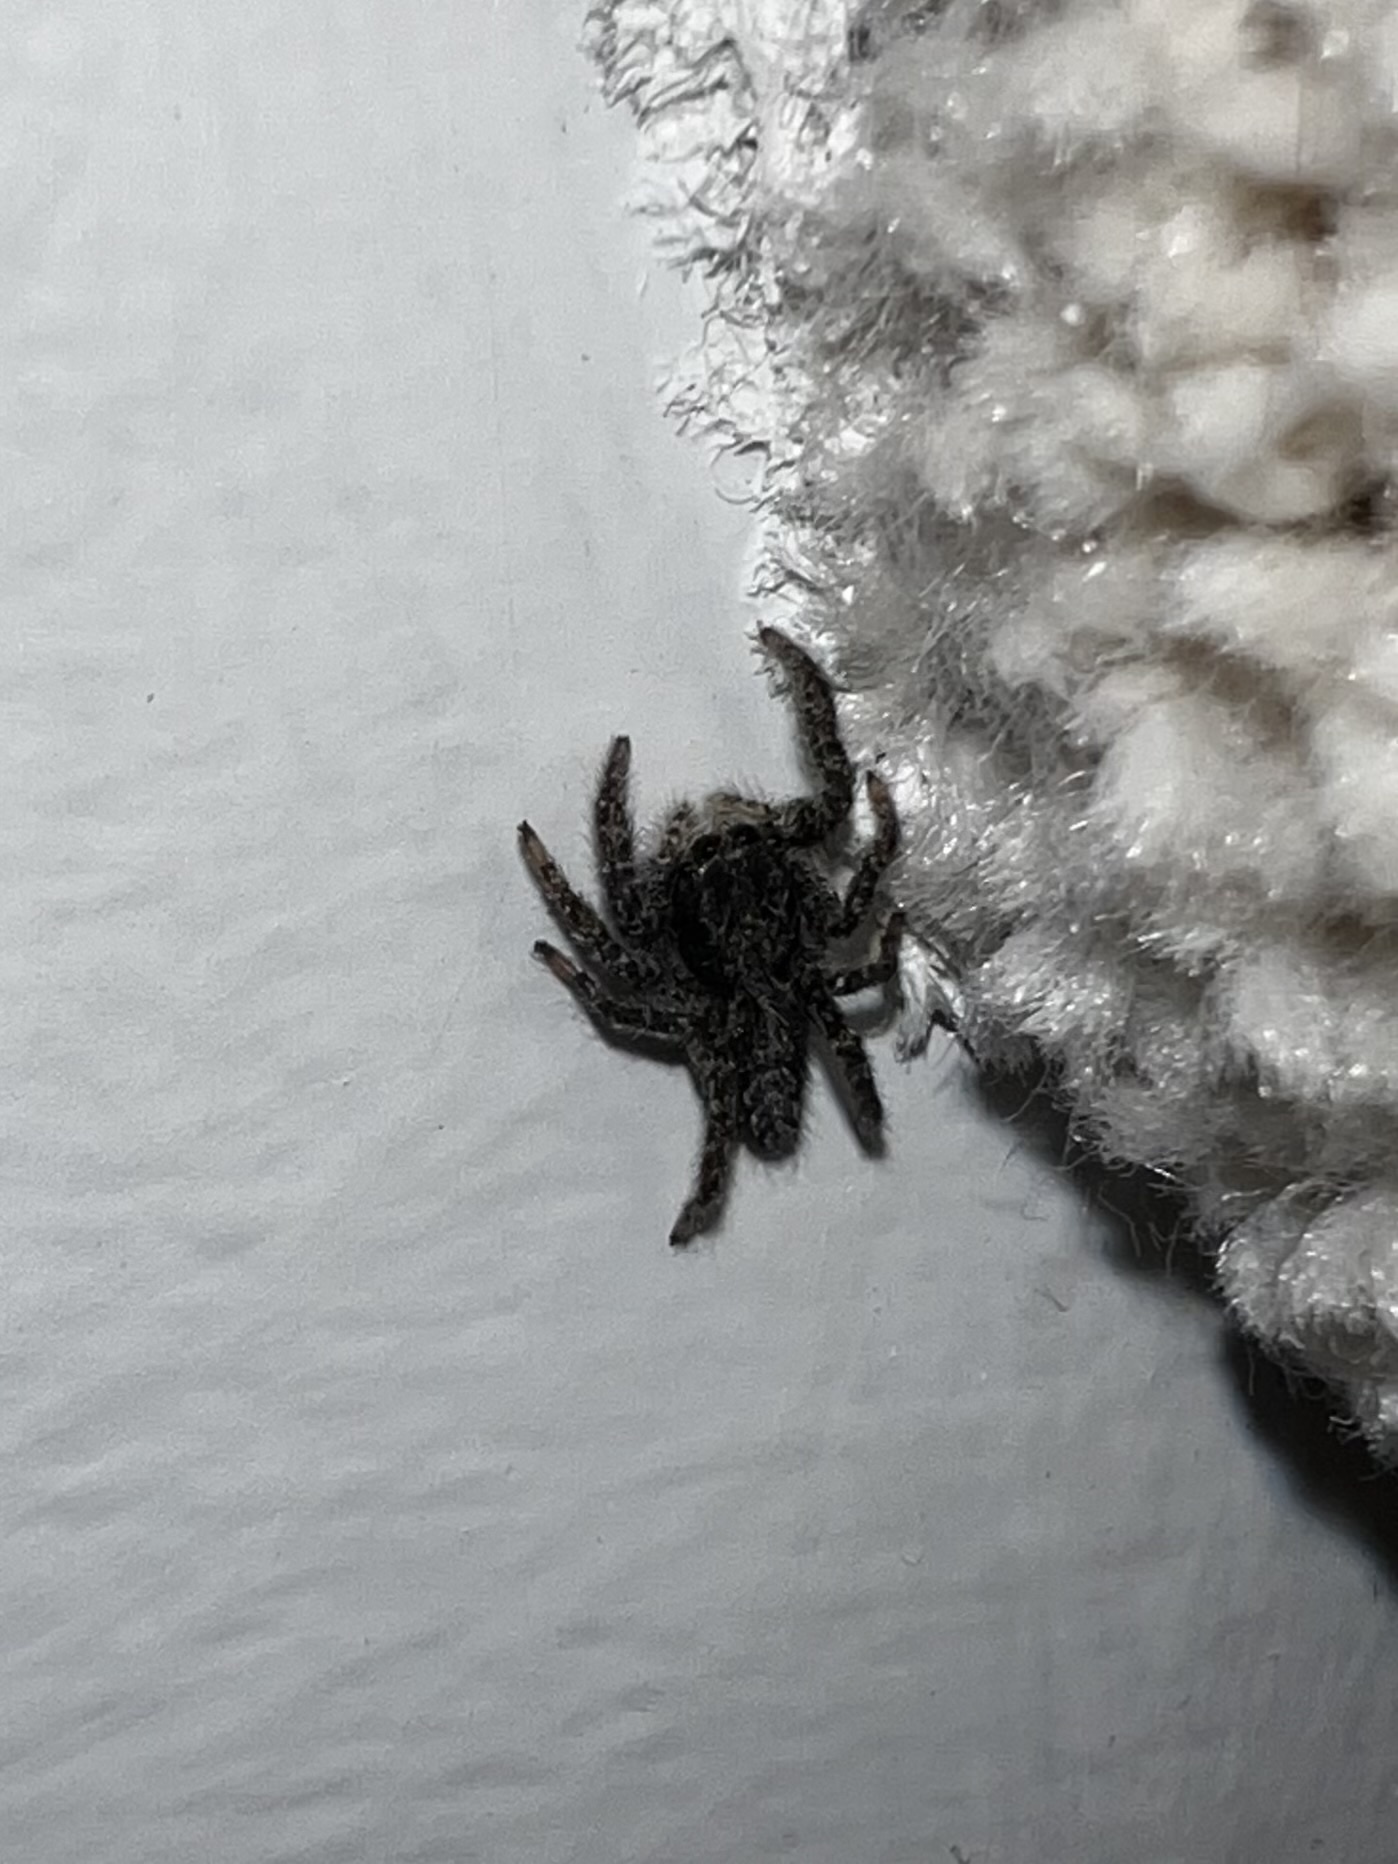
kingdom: Animalia
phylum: Arthropoda
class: Arachnida
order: Araneae
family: Salticidae
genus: Platycryptus
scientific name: Platycryptus californicus
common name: Jumping spiders
